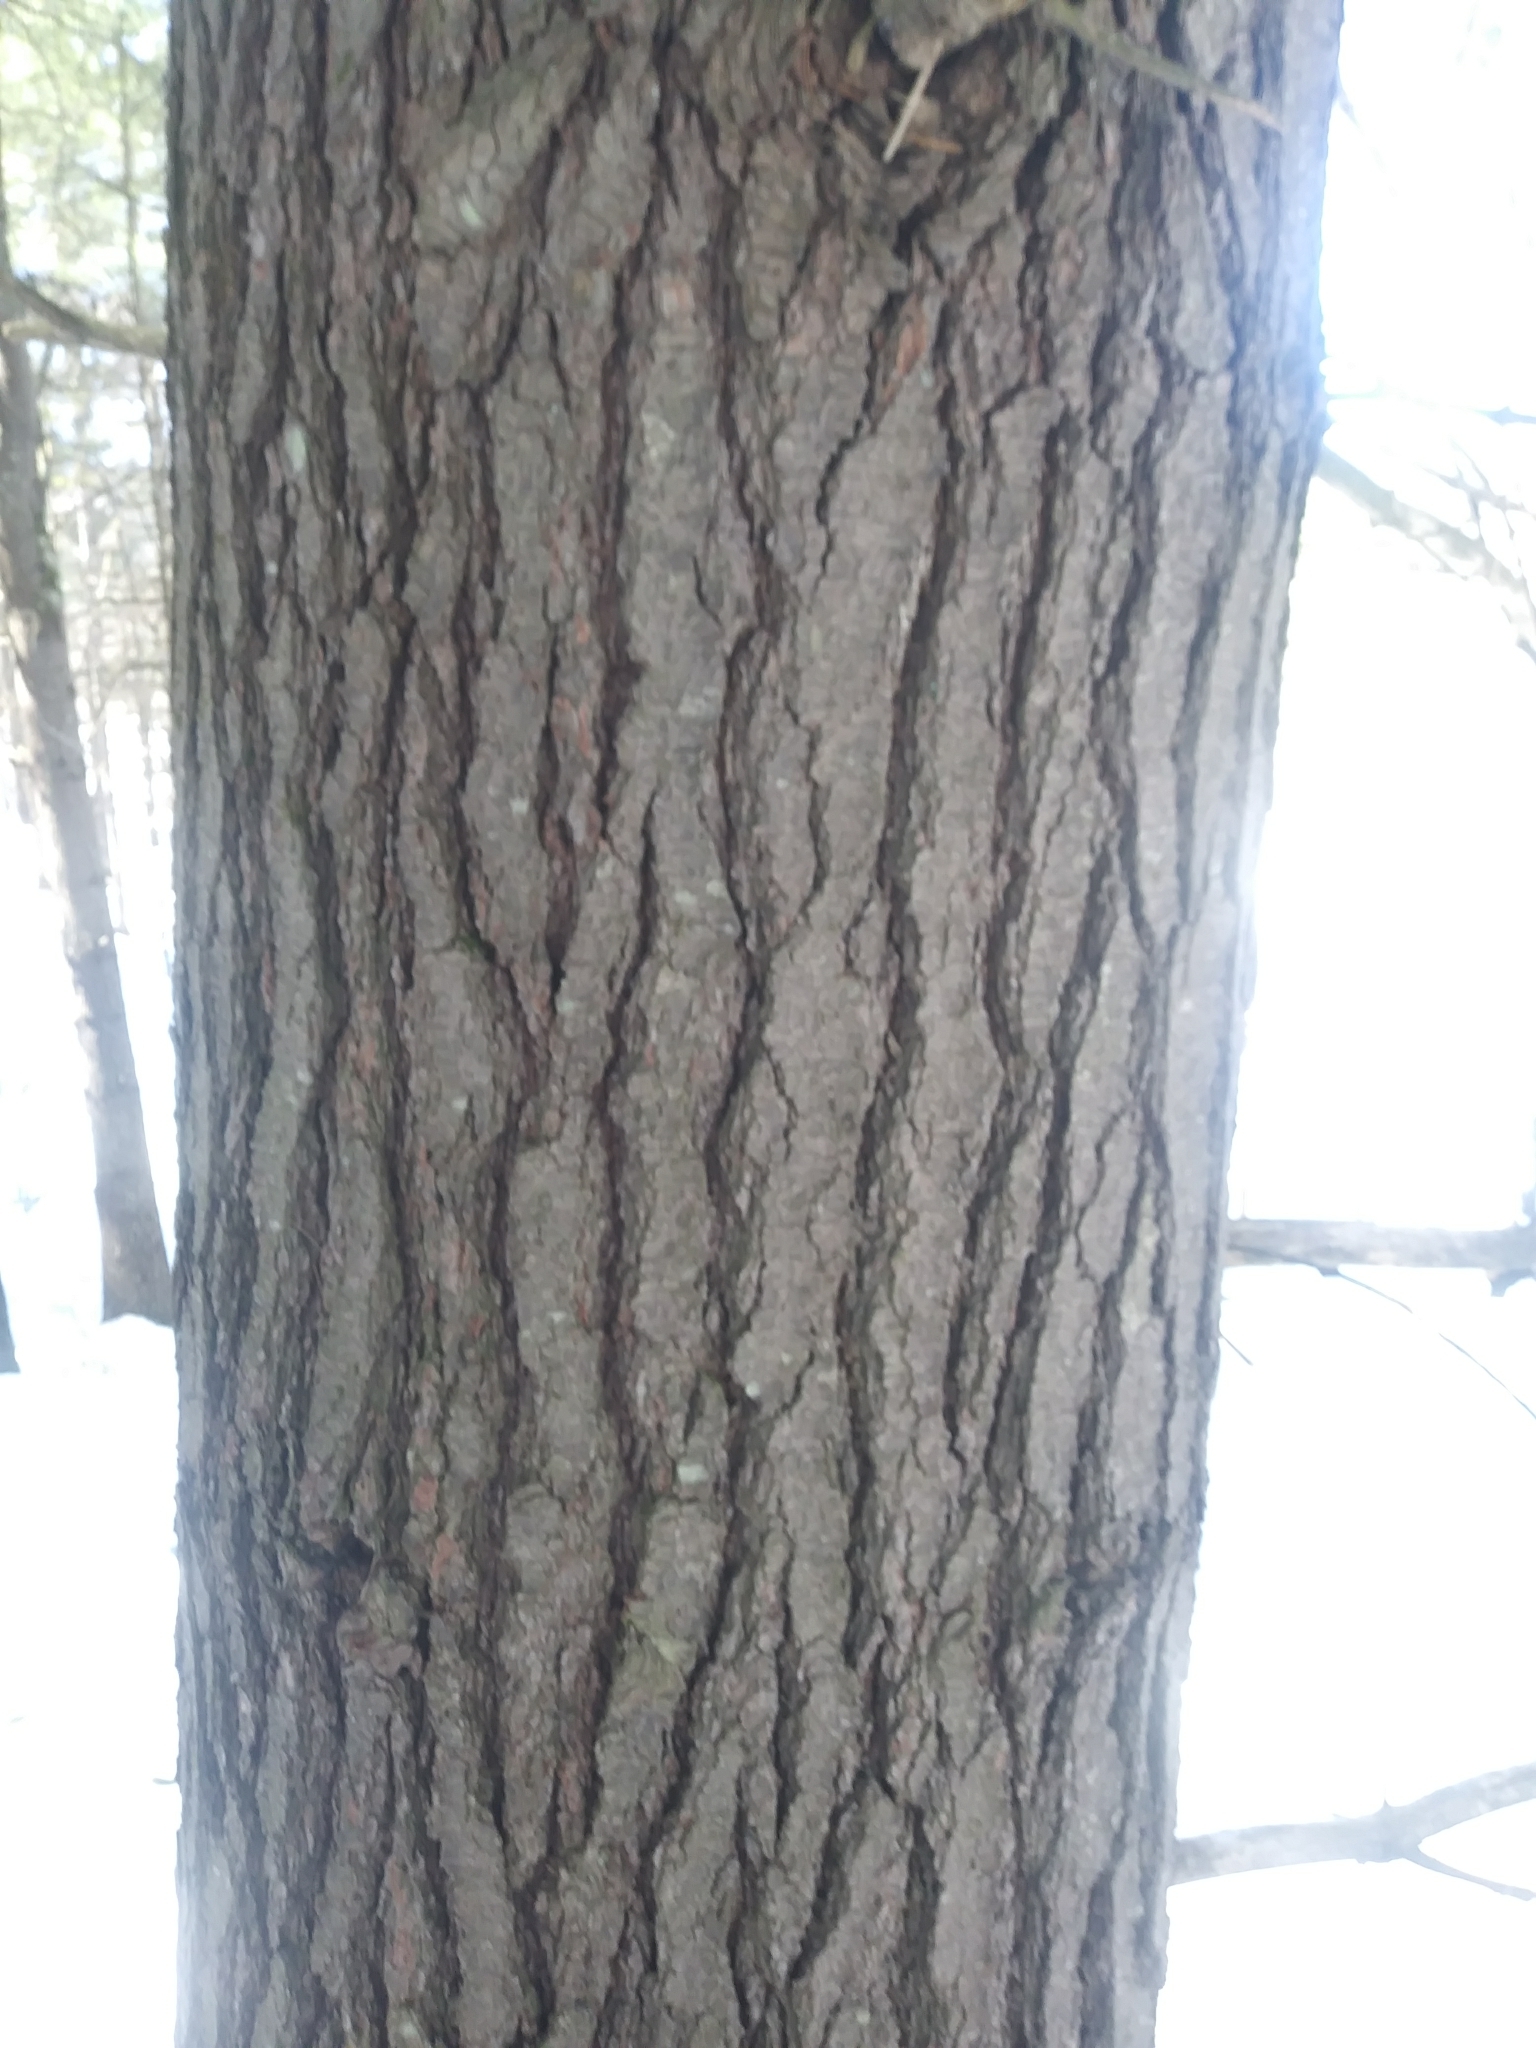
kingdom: Plantae
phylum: Tracheophyta
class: Pinopsida
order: Pinales
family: Pinaceae
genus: Pinus
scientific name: Pinus strobus
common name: Weymouth pine
